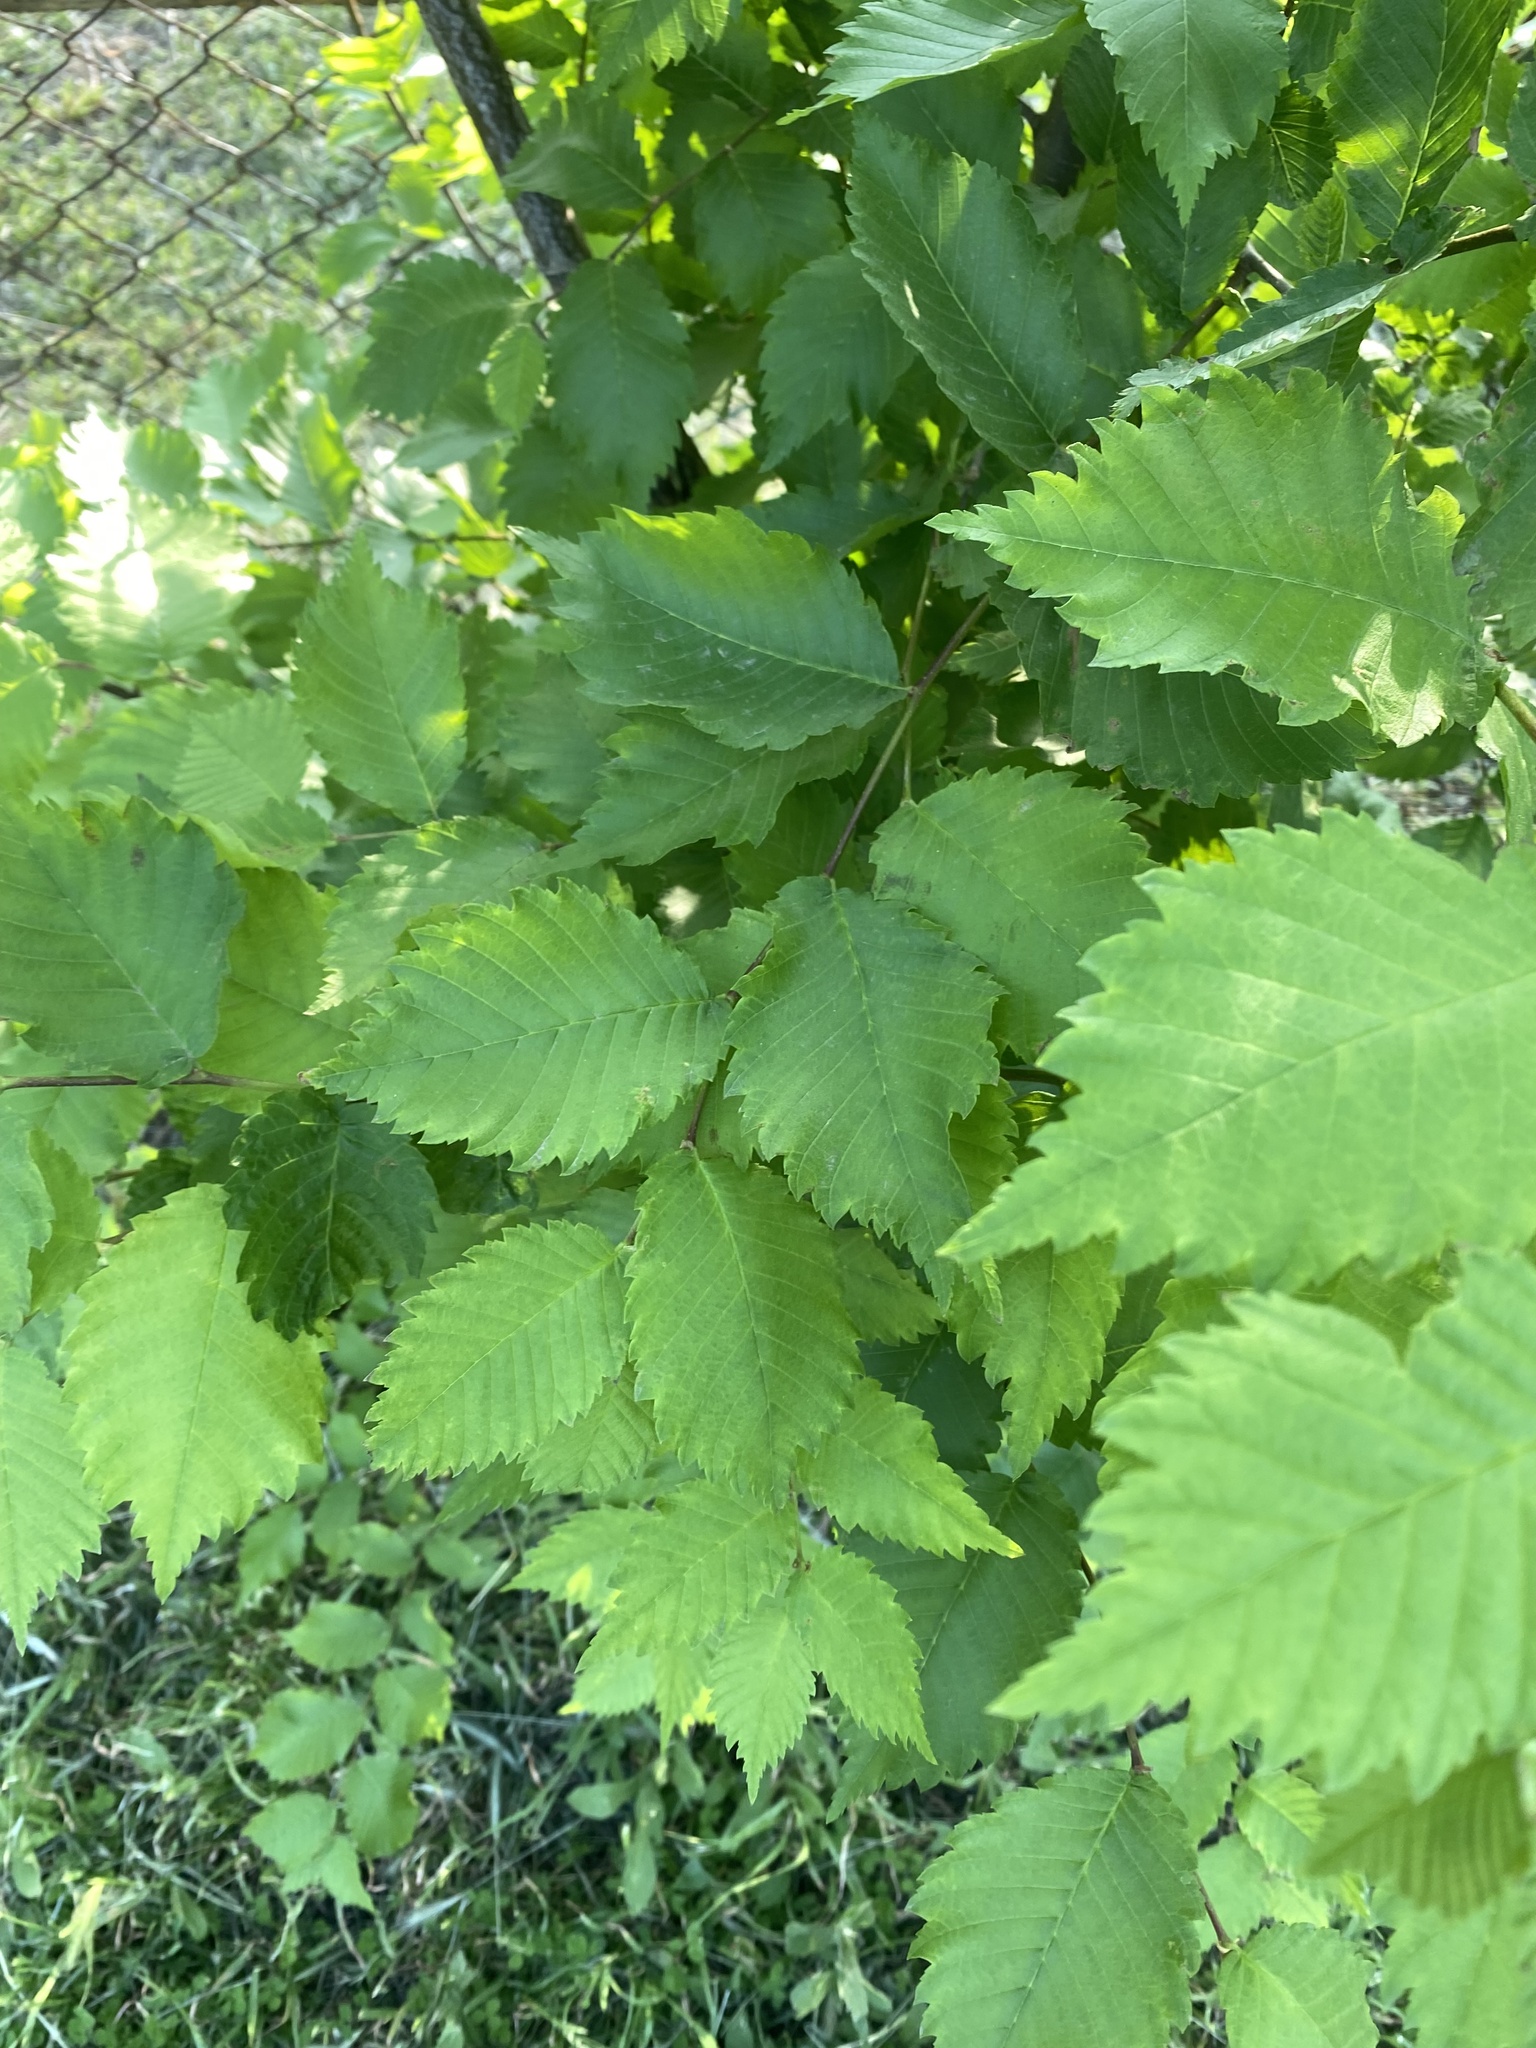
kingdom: Plantae
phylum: Tracheophyta
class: Magnoliopsida
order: Rosales
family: Ulmaceae
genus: Ulmus
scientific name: Ulmus laevis
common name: European white-elm
